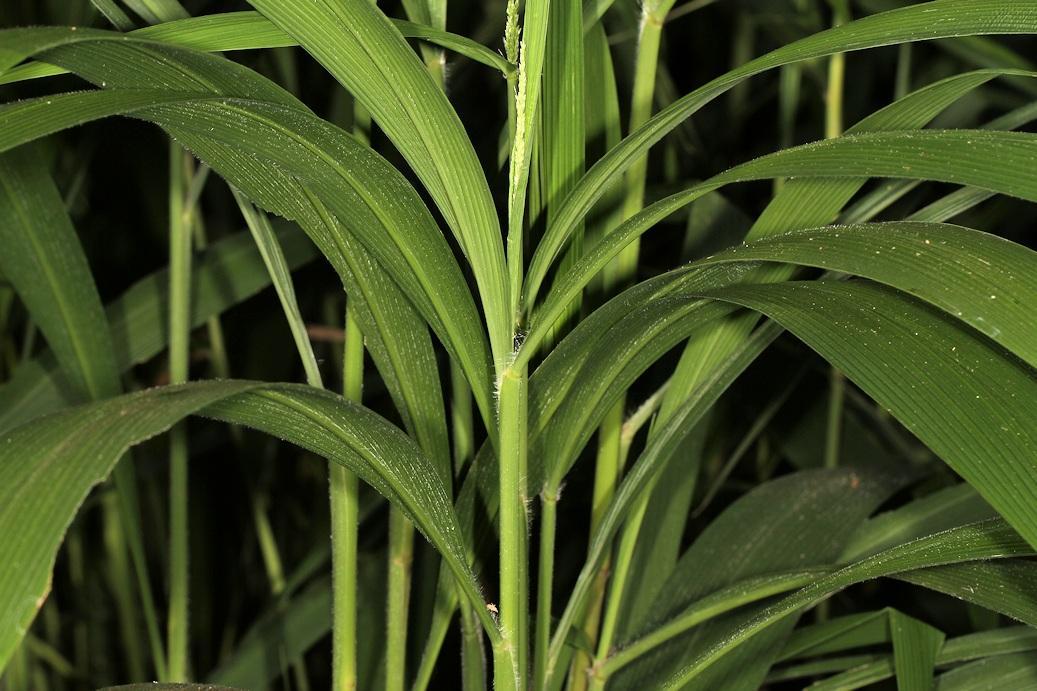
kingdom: Plantae
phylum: Tracheophyta
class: Liliopsida
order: Poales
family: Poaceae
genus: Setaria
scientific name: Setaria megaphylla
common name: Bigleaf bristlegrass
